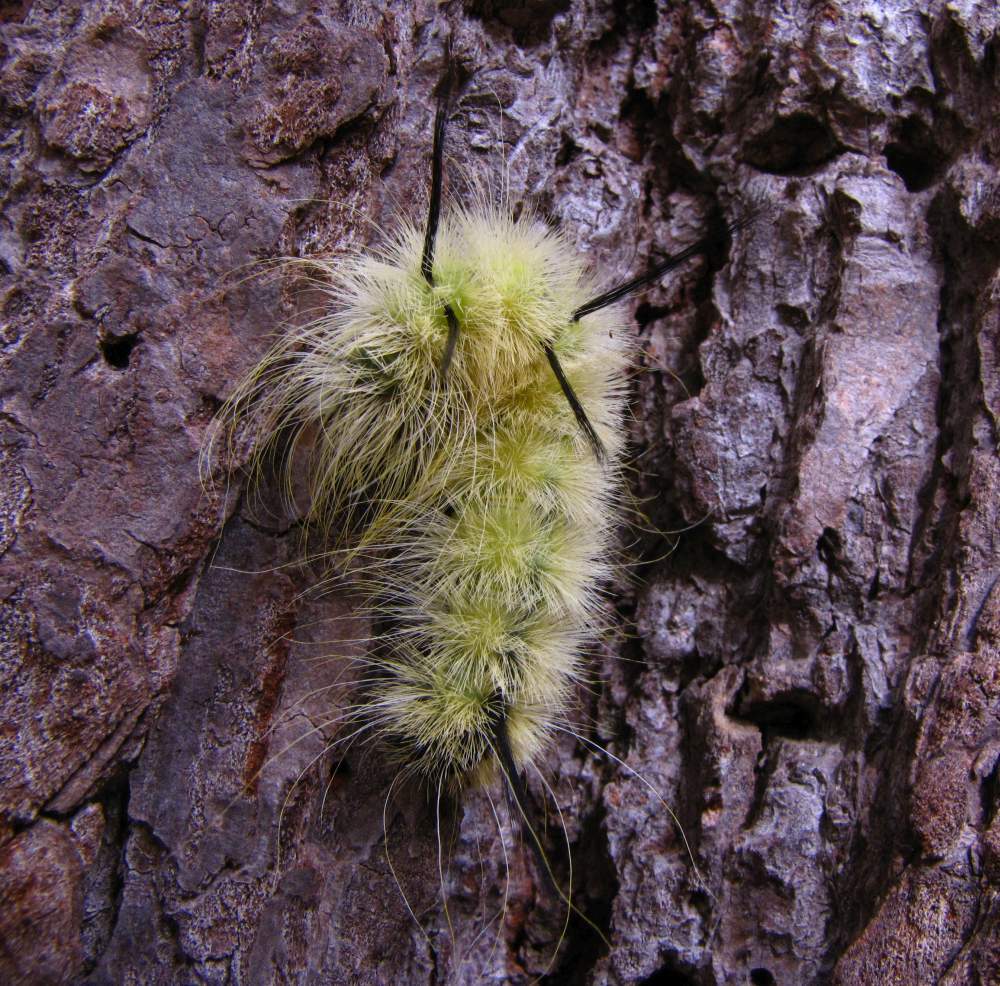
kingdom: Animalia
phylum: Arthropoda
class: Insecta
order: Lepidoptera
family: Noctuidae
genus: Acronicta
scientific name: Acronicta americana
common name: American dagger
